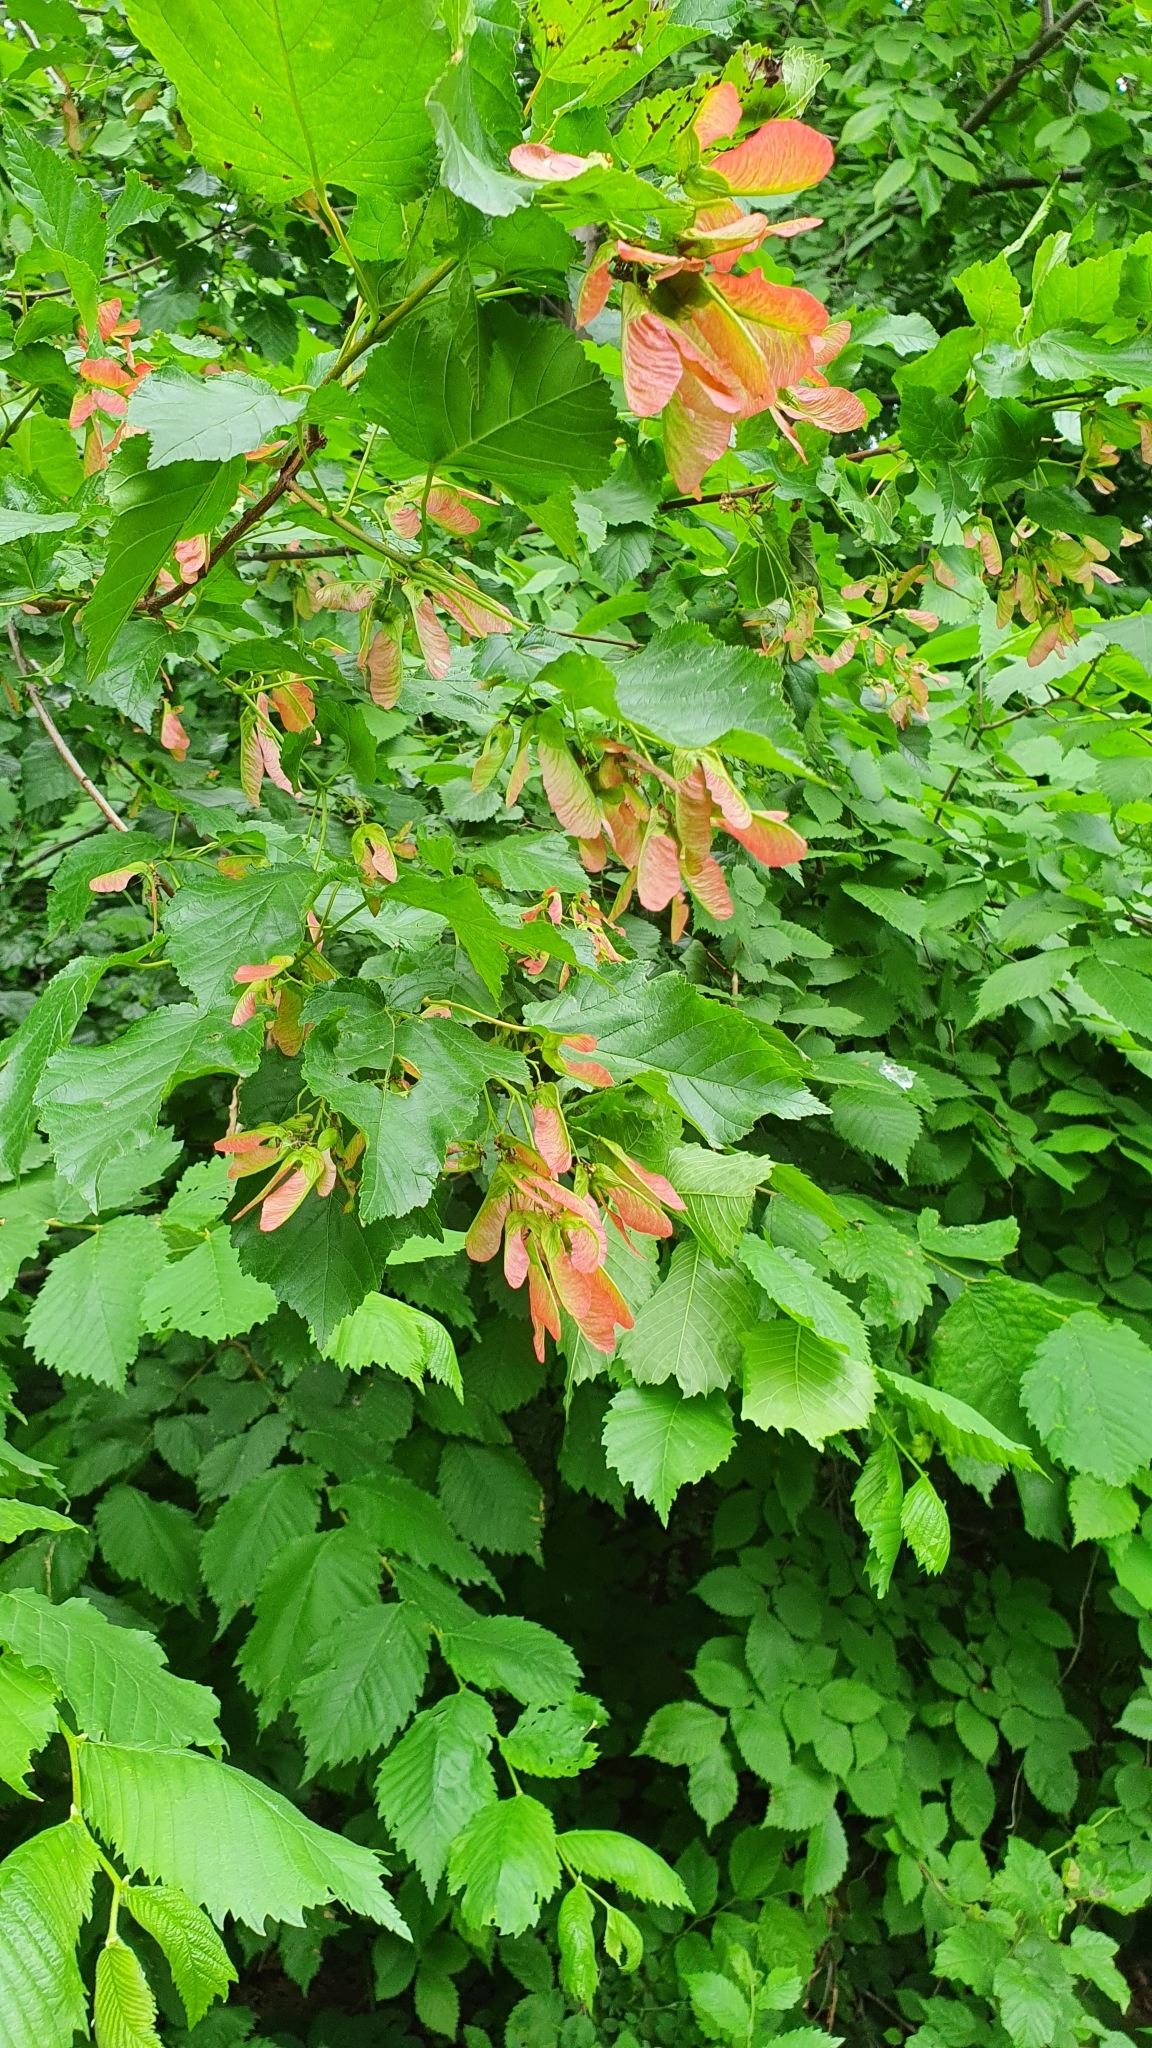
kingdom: Plantae
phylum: Tracheophyta
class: Magnoliopsida
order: Sapindales
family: Sapindaceae
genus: Acer
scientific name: Acer tataricum
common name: Tartar maple
